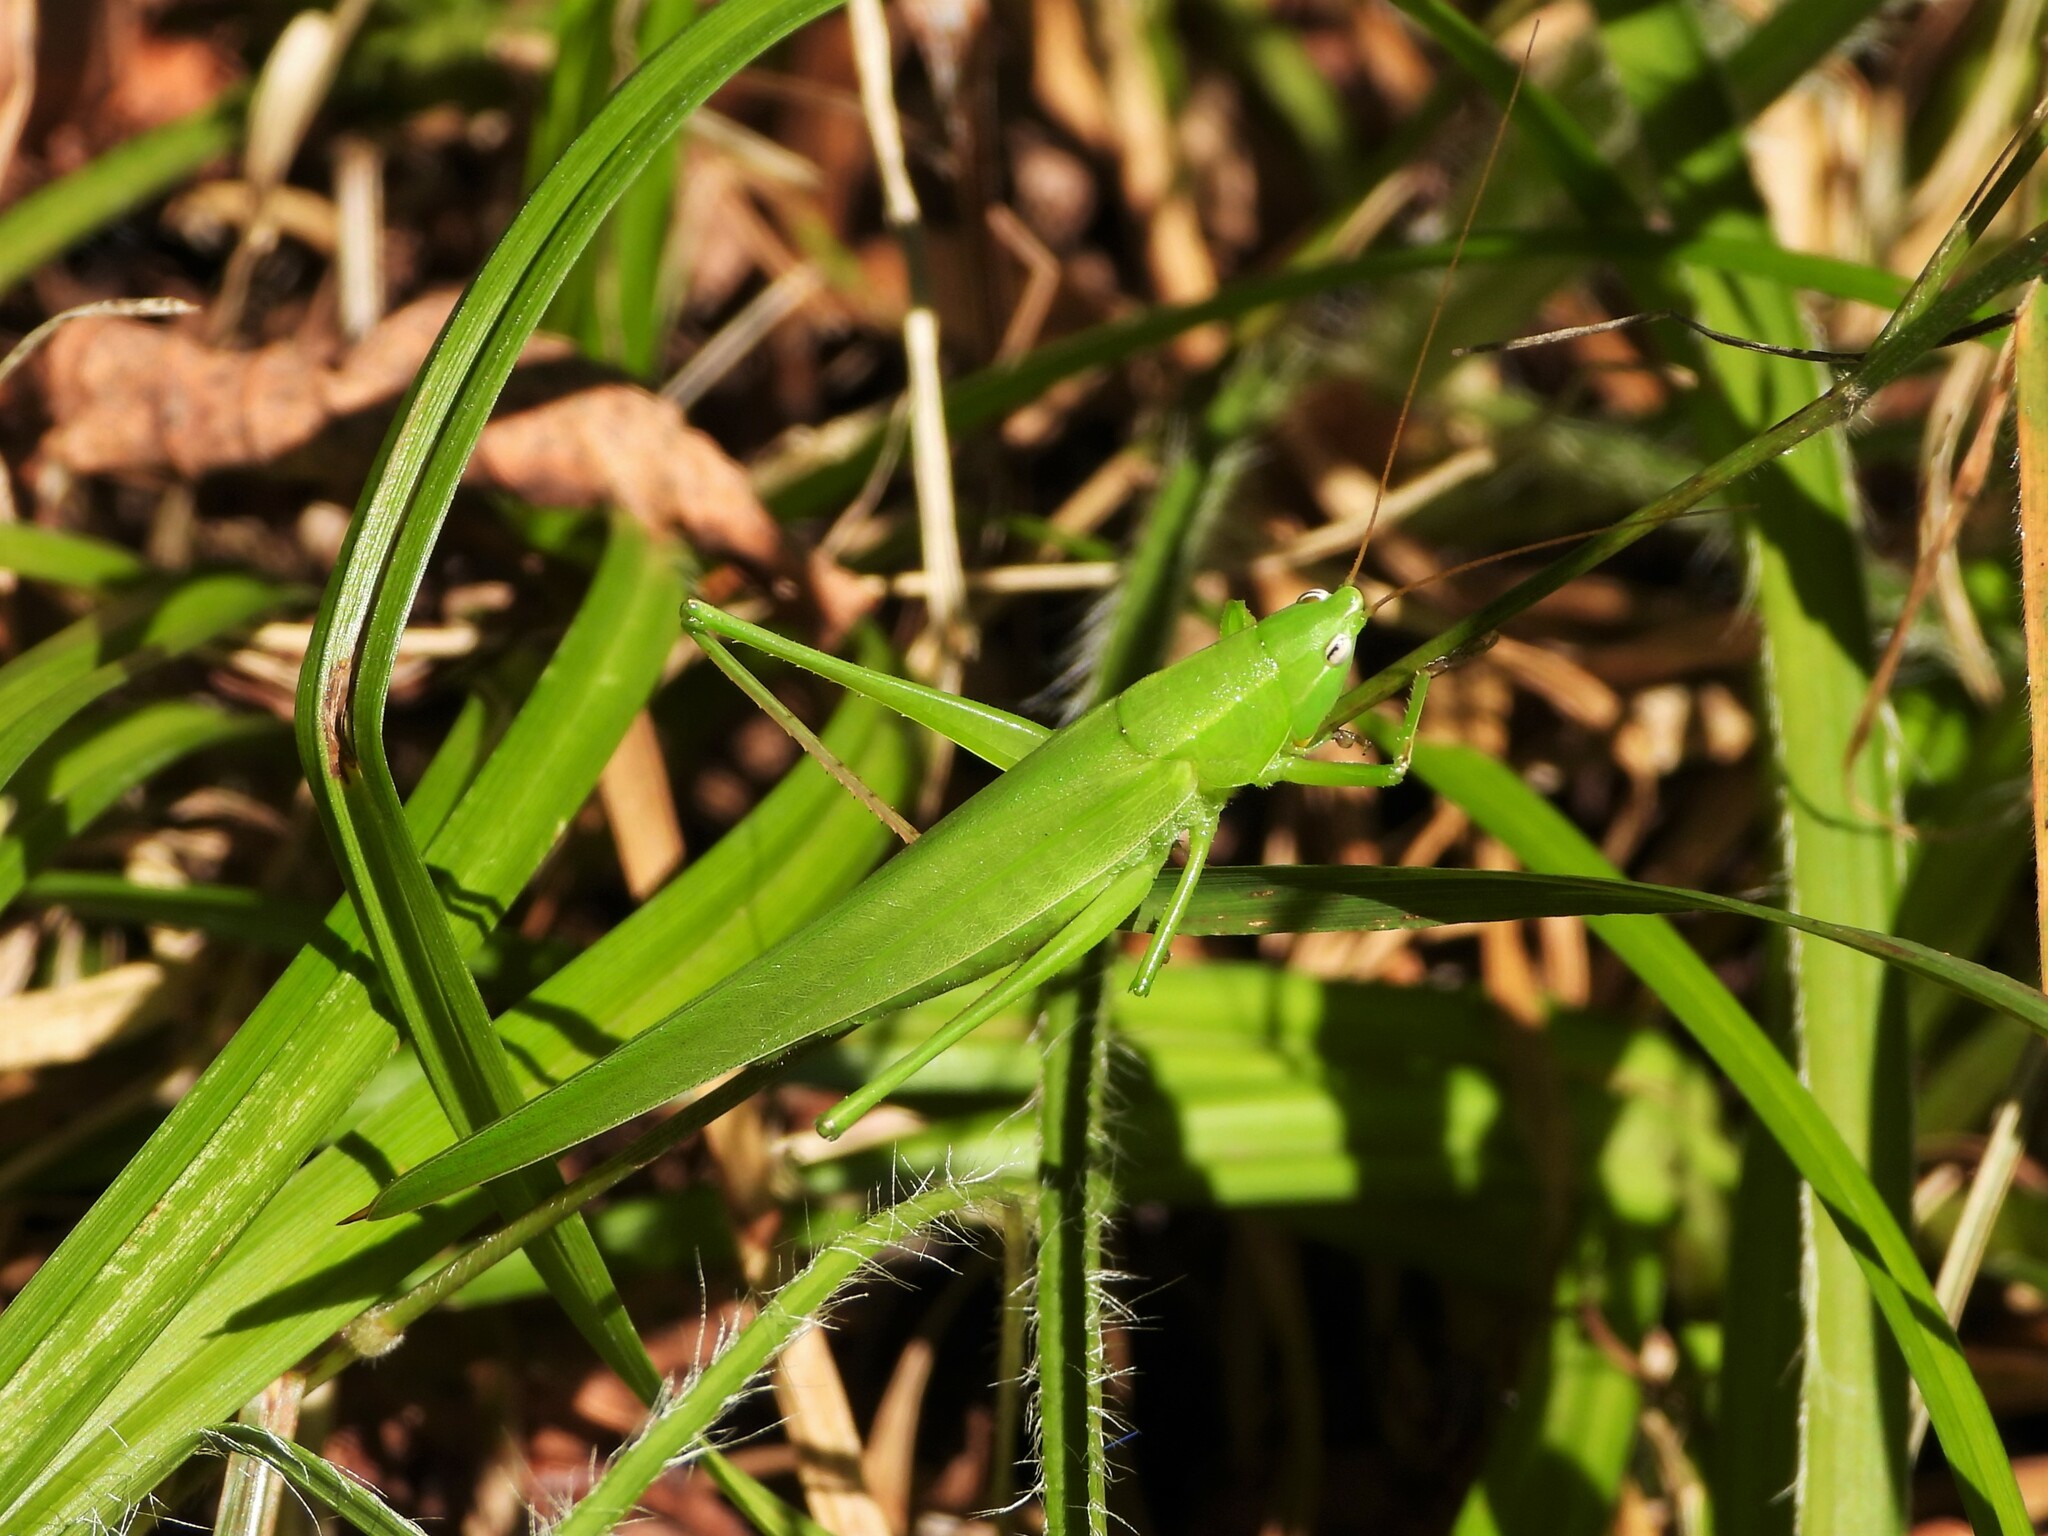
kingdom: Animalia
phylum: Arthropoda
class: Insecta
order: Orthoptera
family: Tettigoniidae
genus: Ruspolia
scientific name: Ruspolia nitidula
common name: Large conehead
